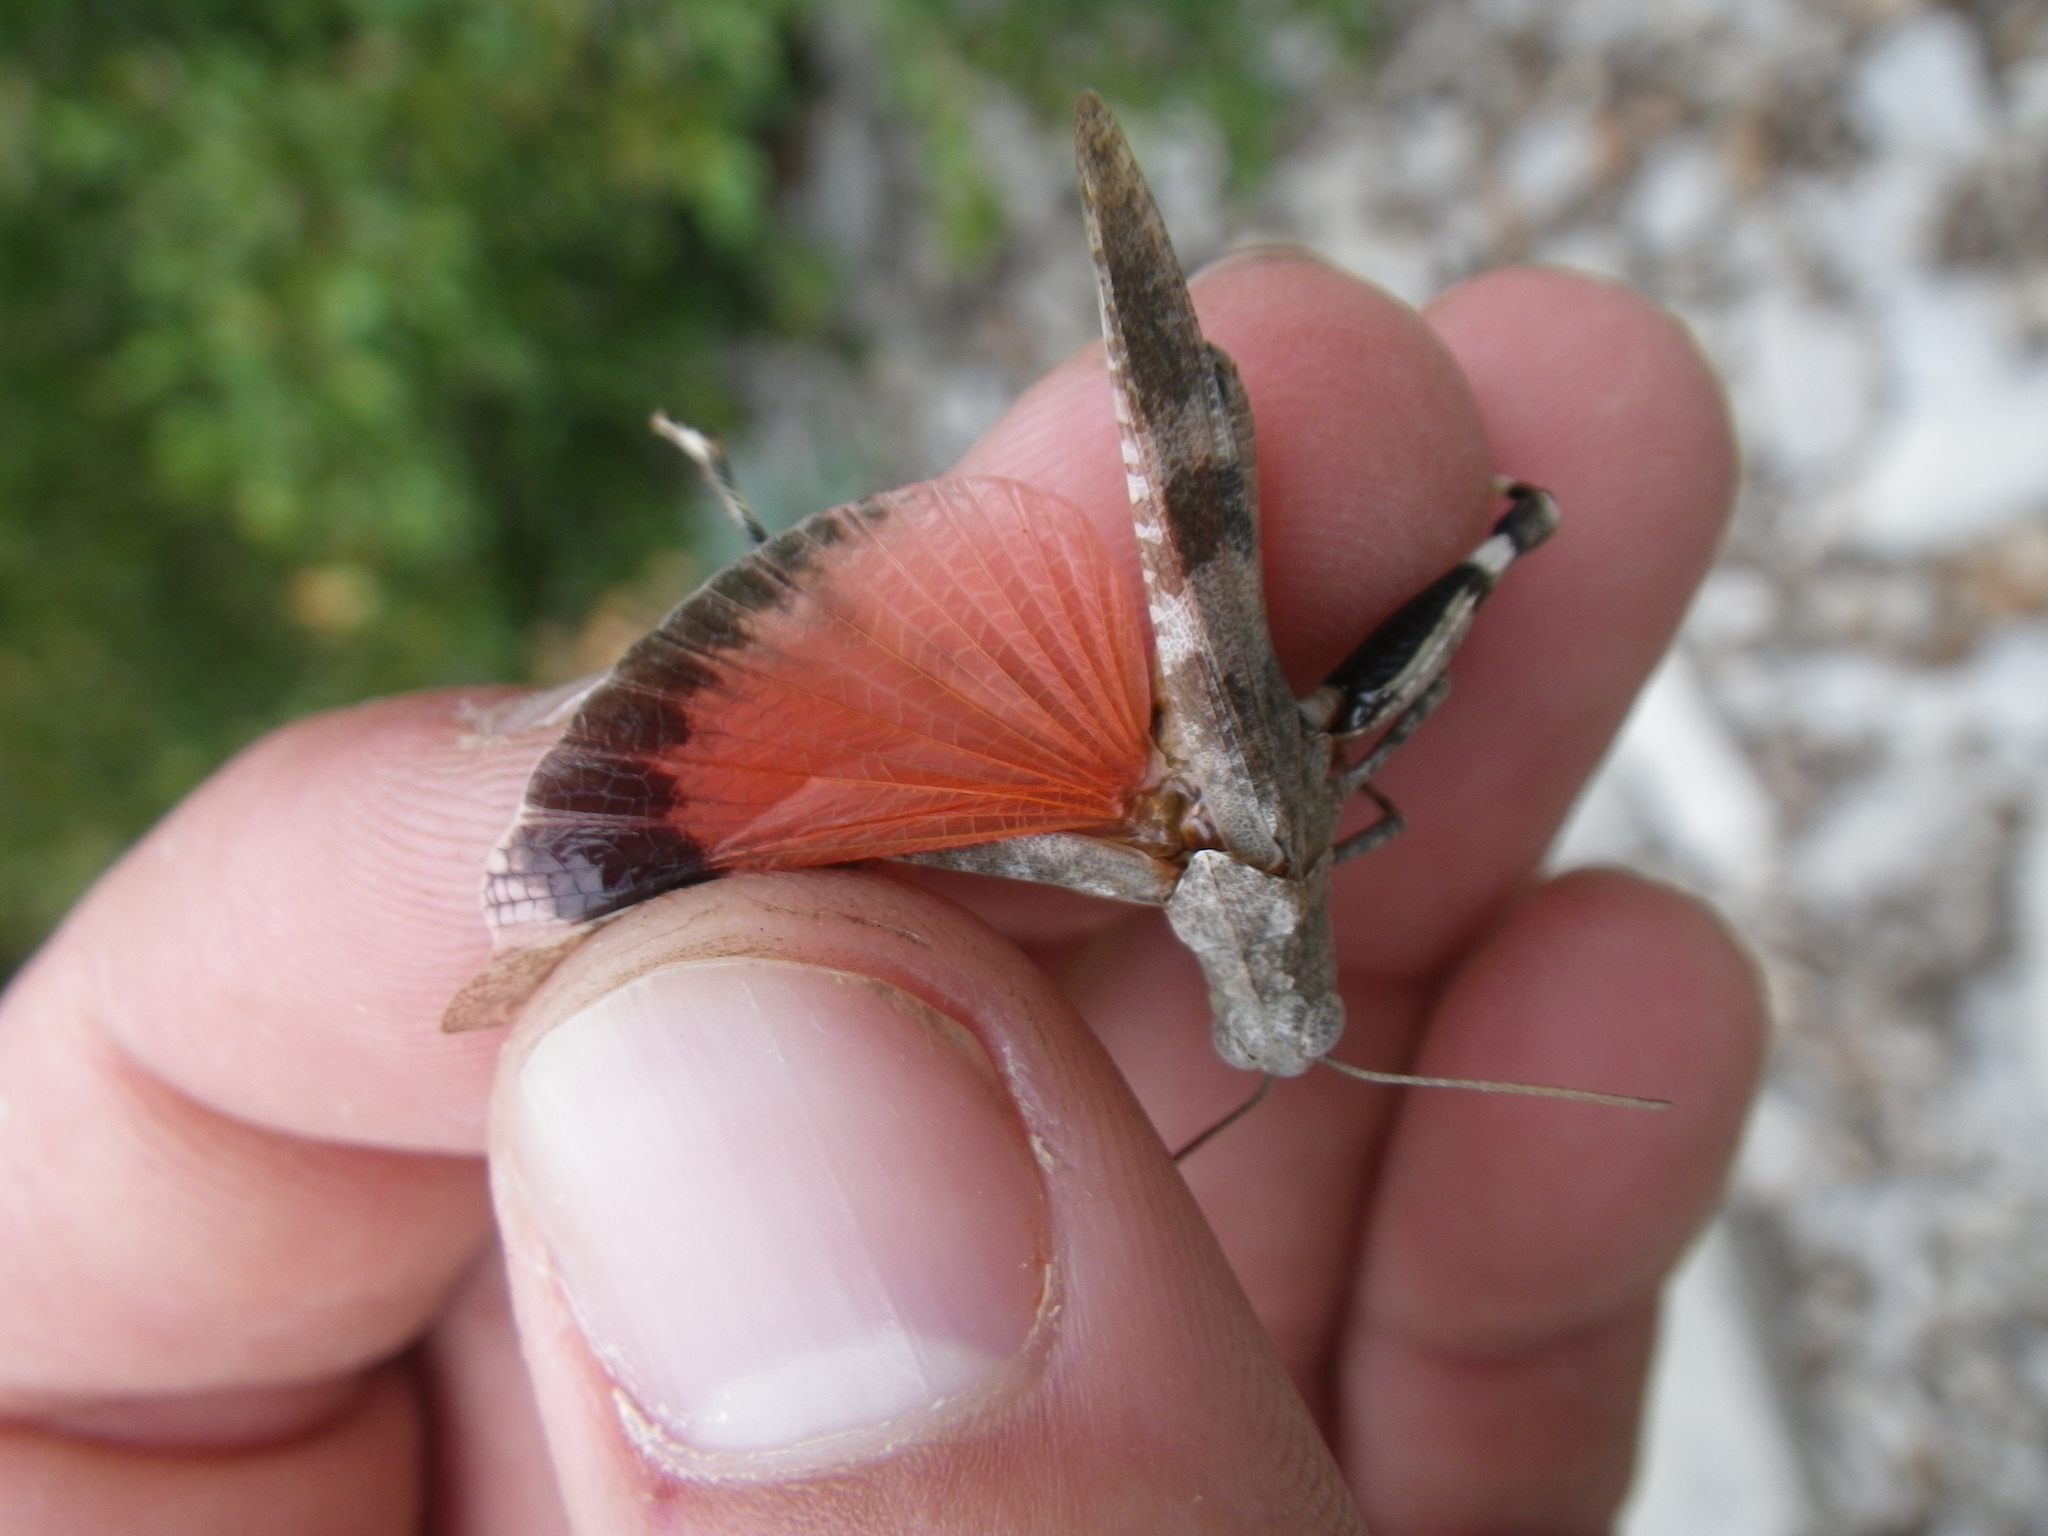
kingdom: Animalia
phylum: Arthropoda
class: Insecta
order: Orthoptera
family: Acrididae
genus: Oedipoda
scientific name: Oedipoda germanica
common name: Red band-winged grasshopper
